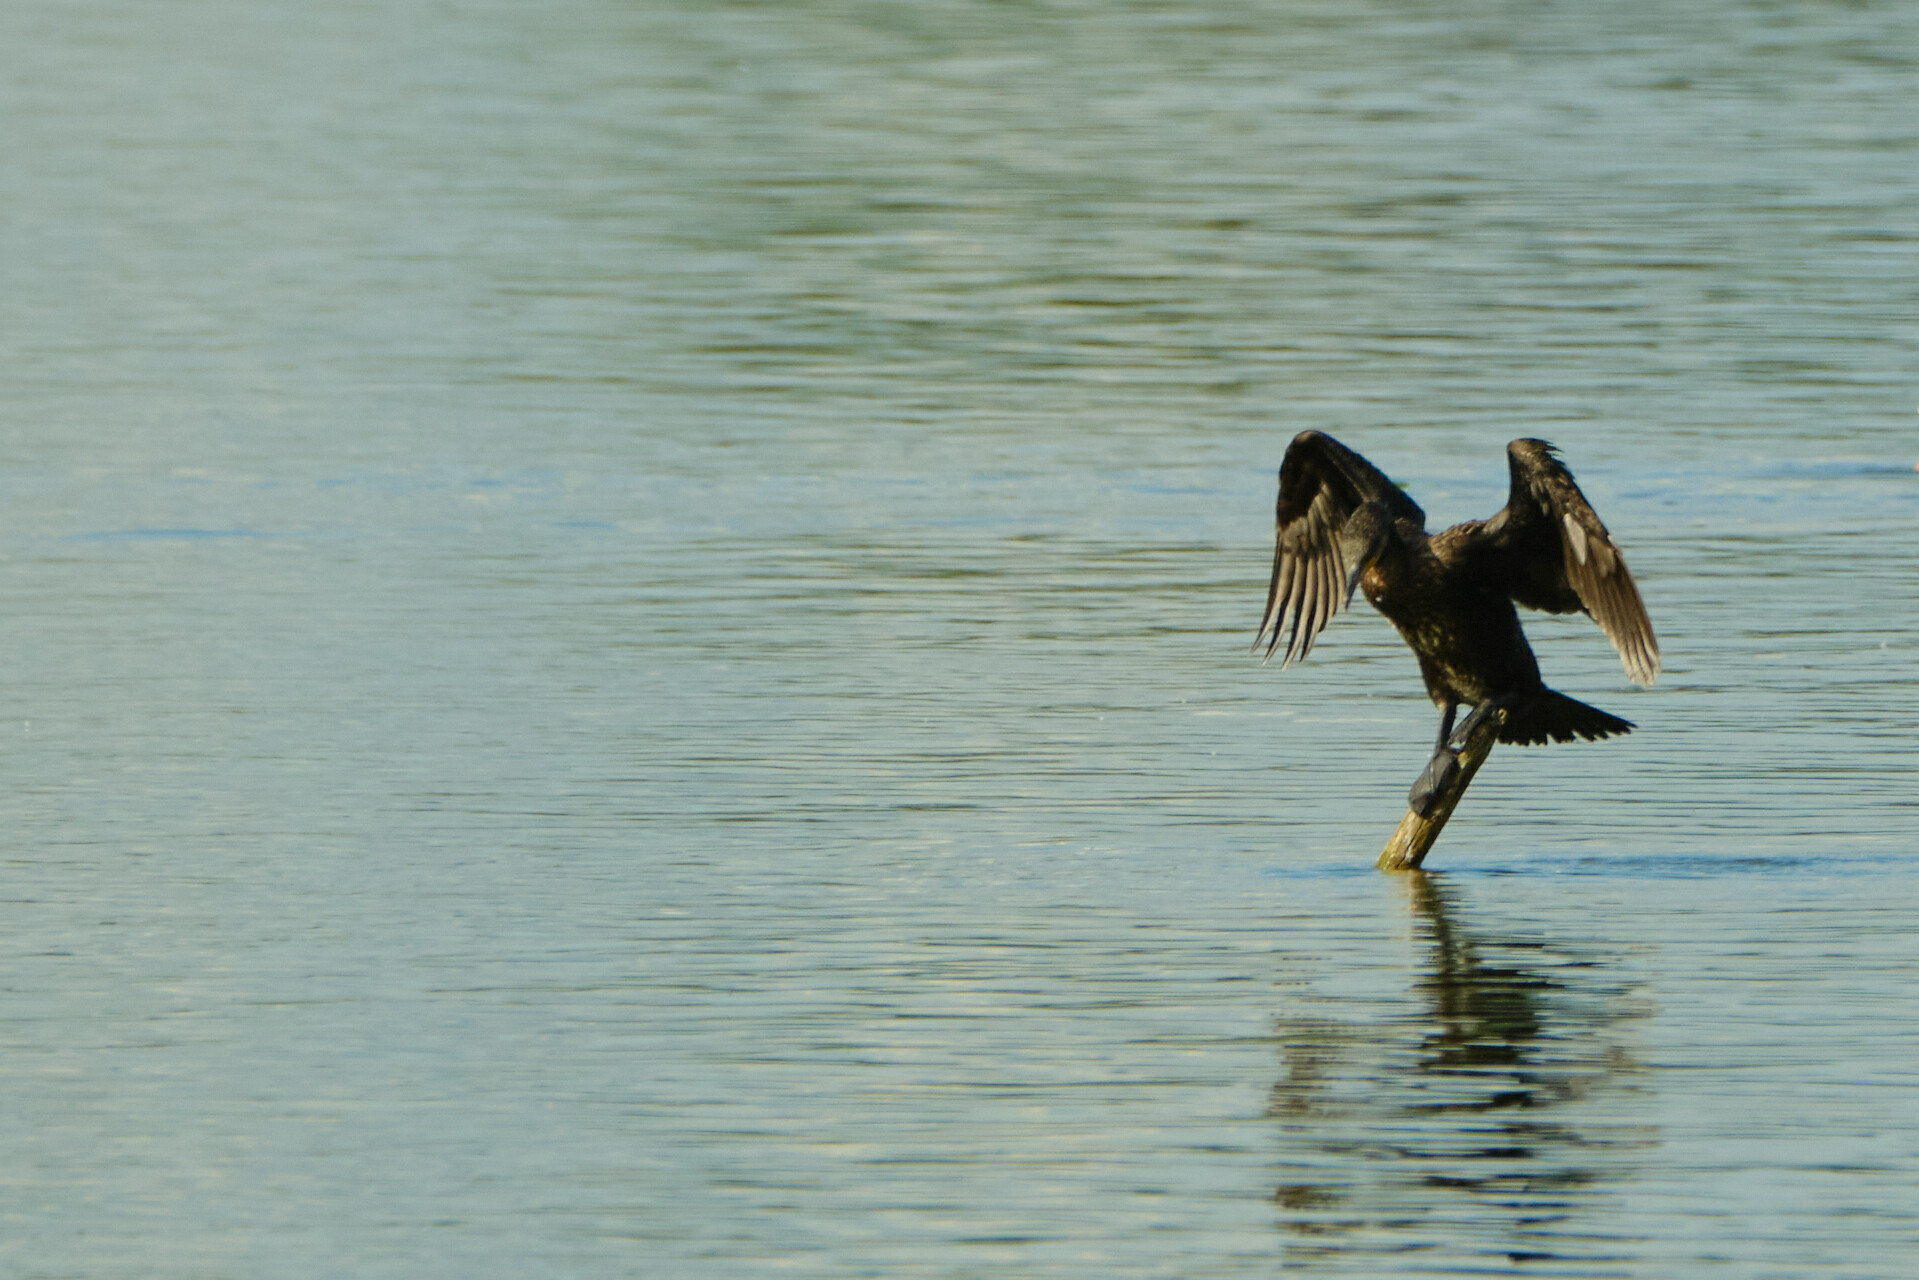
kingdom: Animalia
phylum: Chordata
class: Aves
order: Suliformes
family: Phalacrocoracidae
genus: Phalacrocorax
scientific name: Phalacrocorax carbo
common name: Great cormorant
